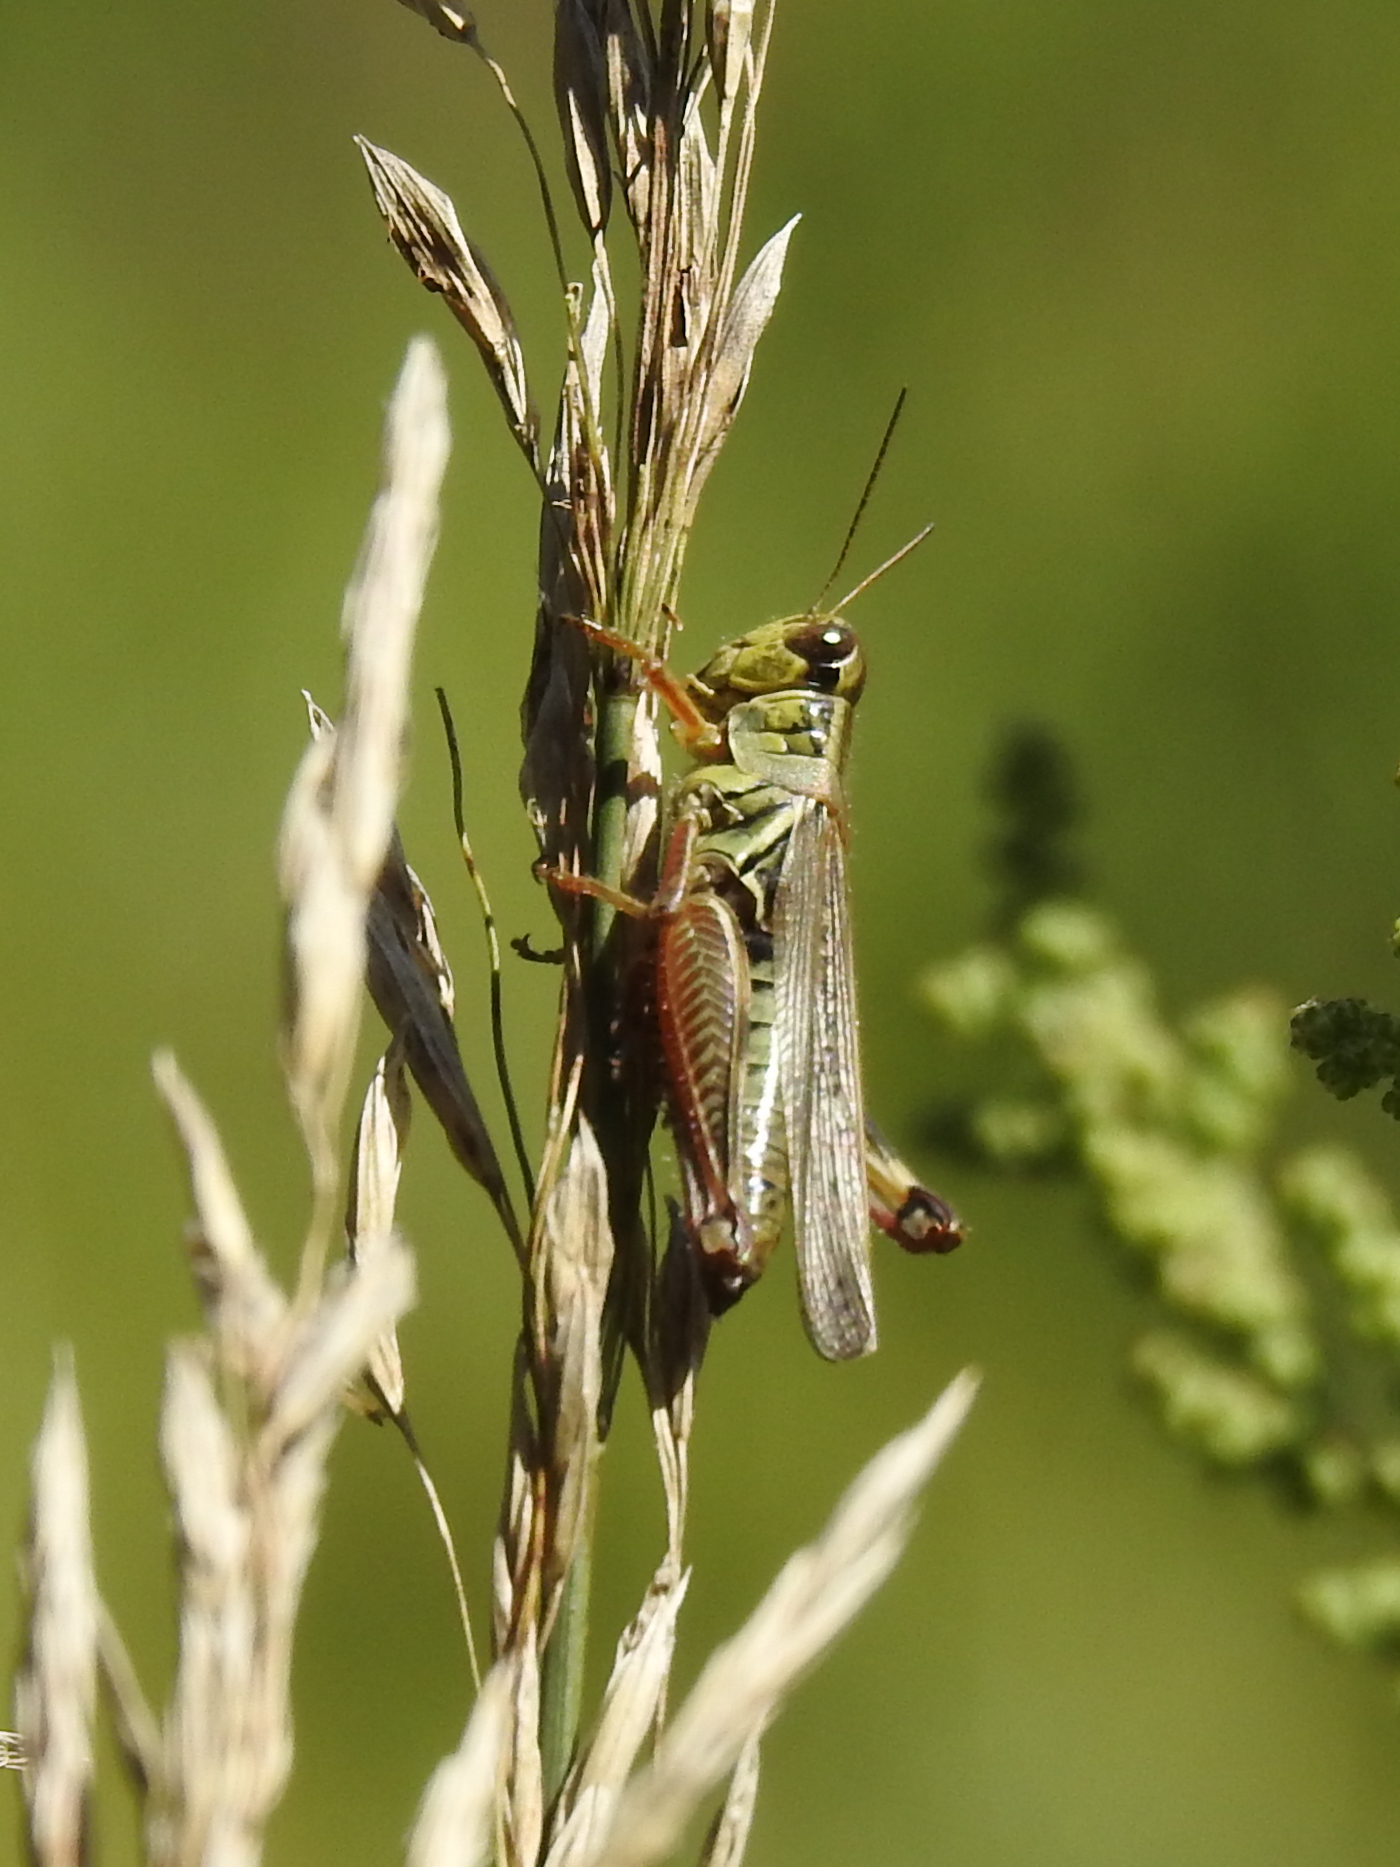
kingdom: Animalia
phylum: Arthropoda
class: Insecta
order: Orthoptera
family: Acrididae
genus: Melanoplus
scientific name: Melanoplus femurrubrum
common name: Red-legged grasshopper
